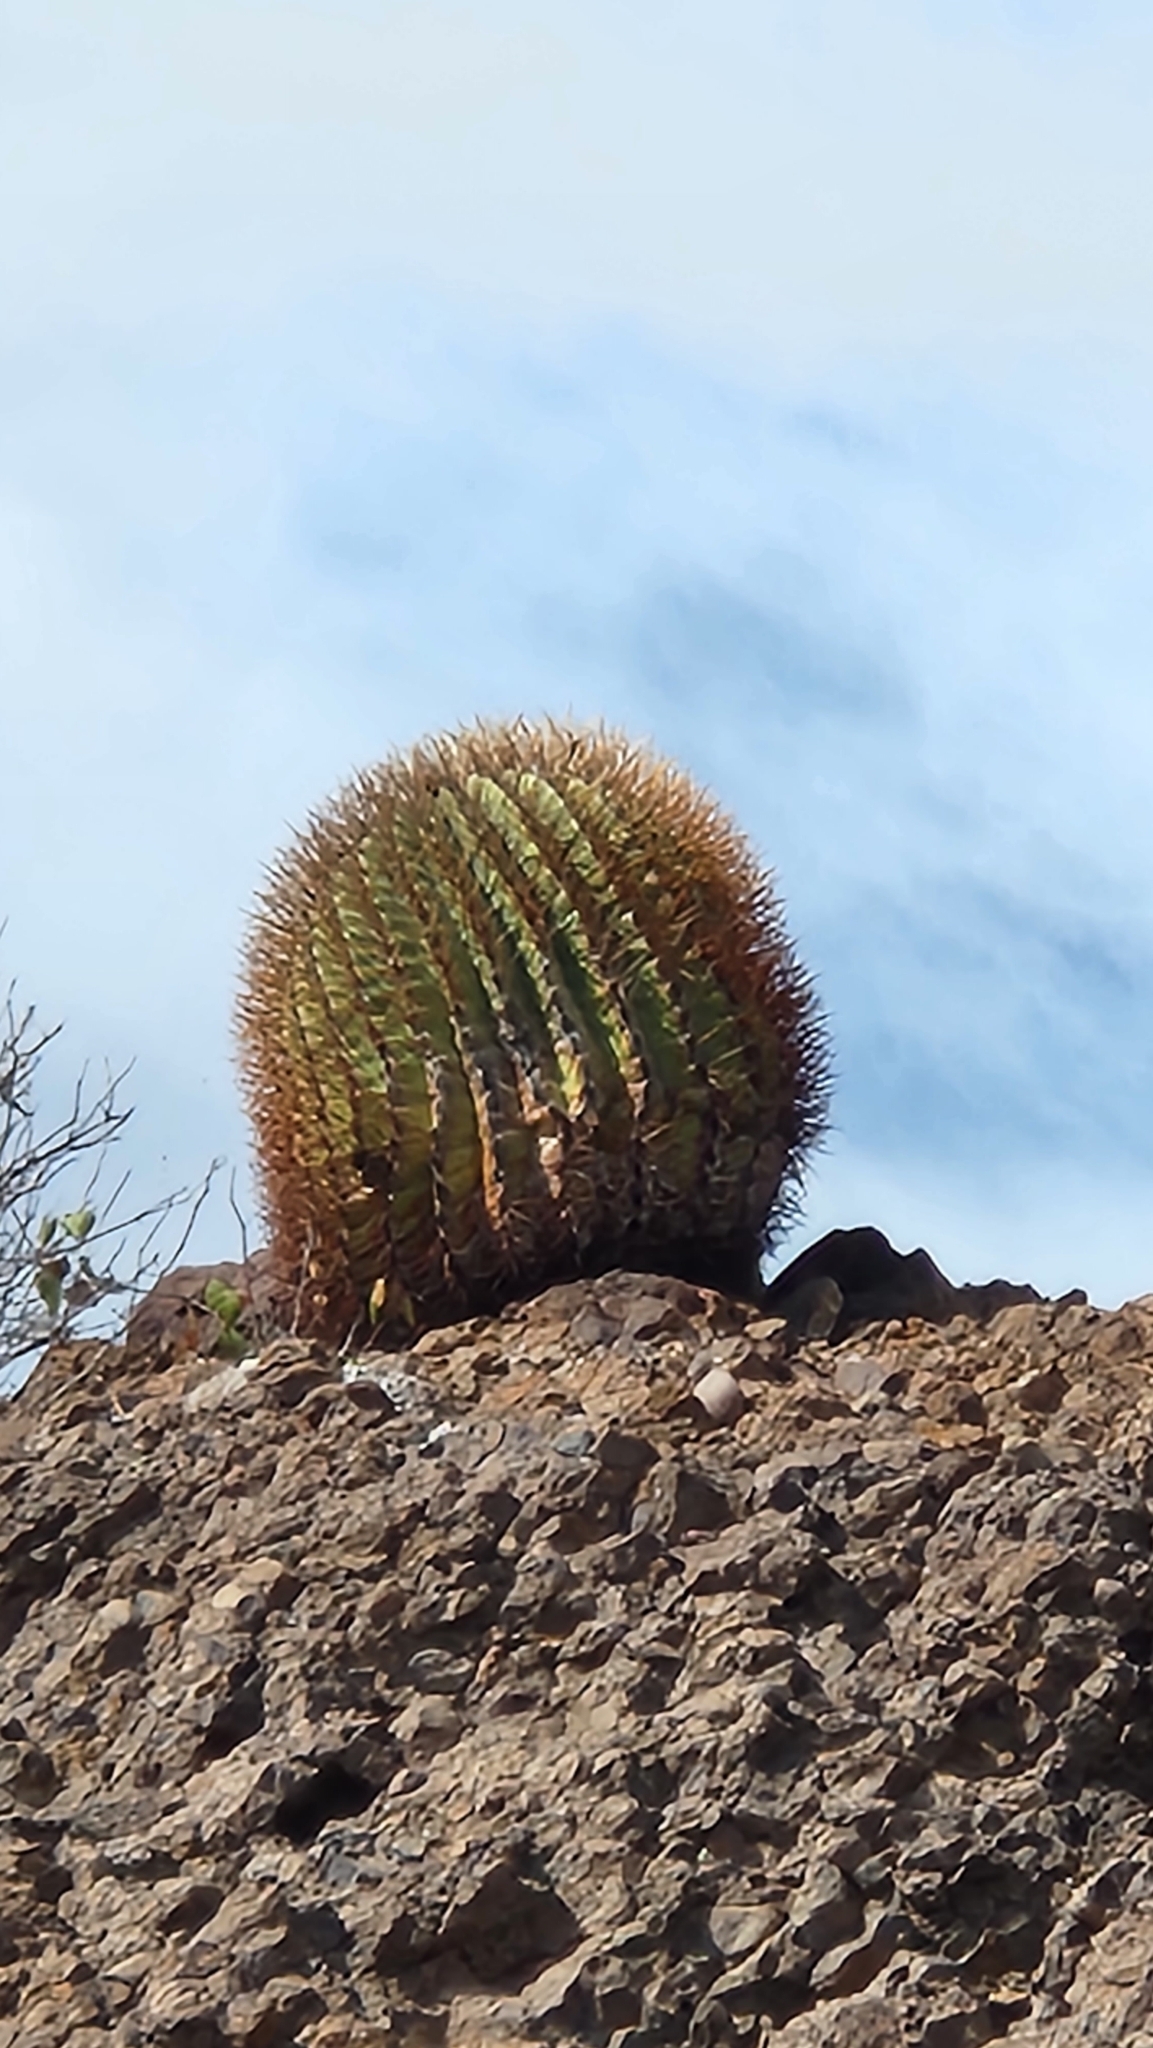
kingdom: Plantae
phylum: Tracheophyta
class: Magnoliopsida
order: Caryophyllales
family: Cactaceae
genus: Ferocactus
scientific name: Ferocactus diguetii
